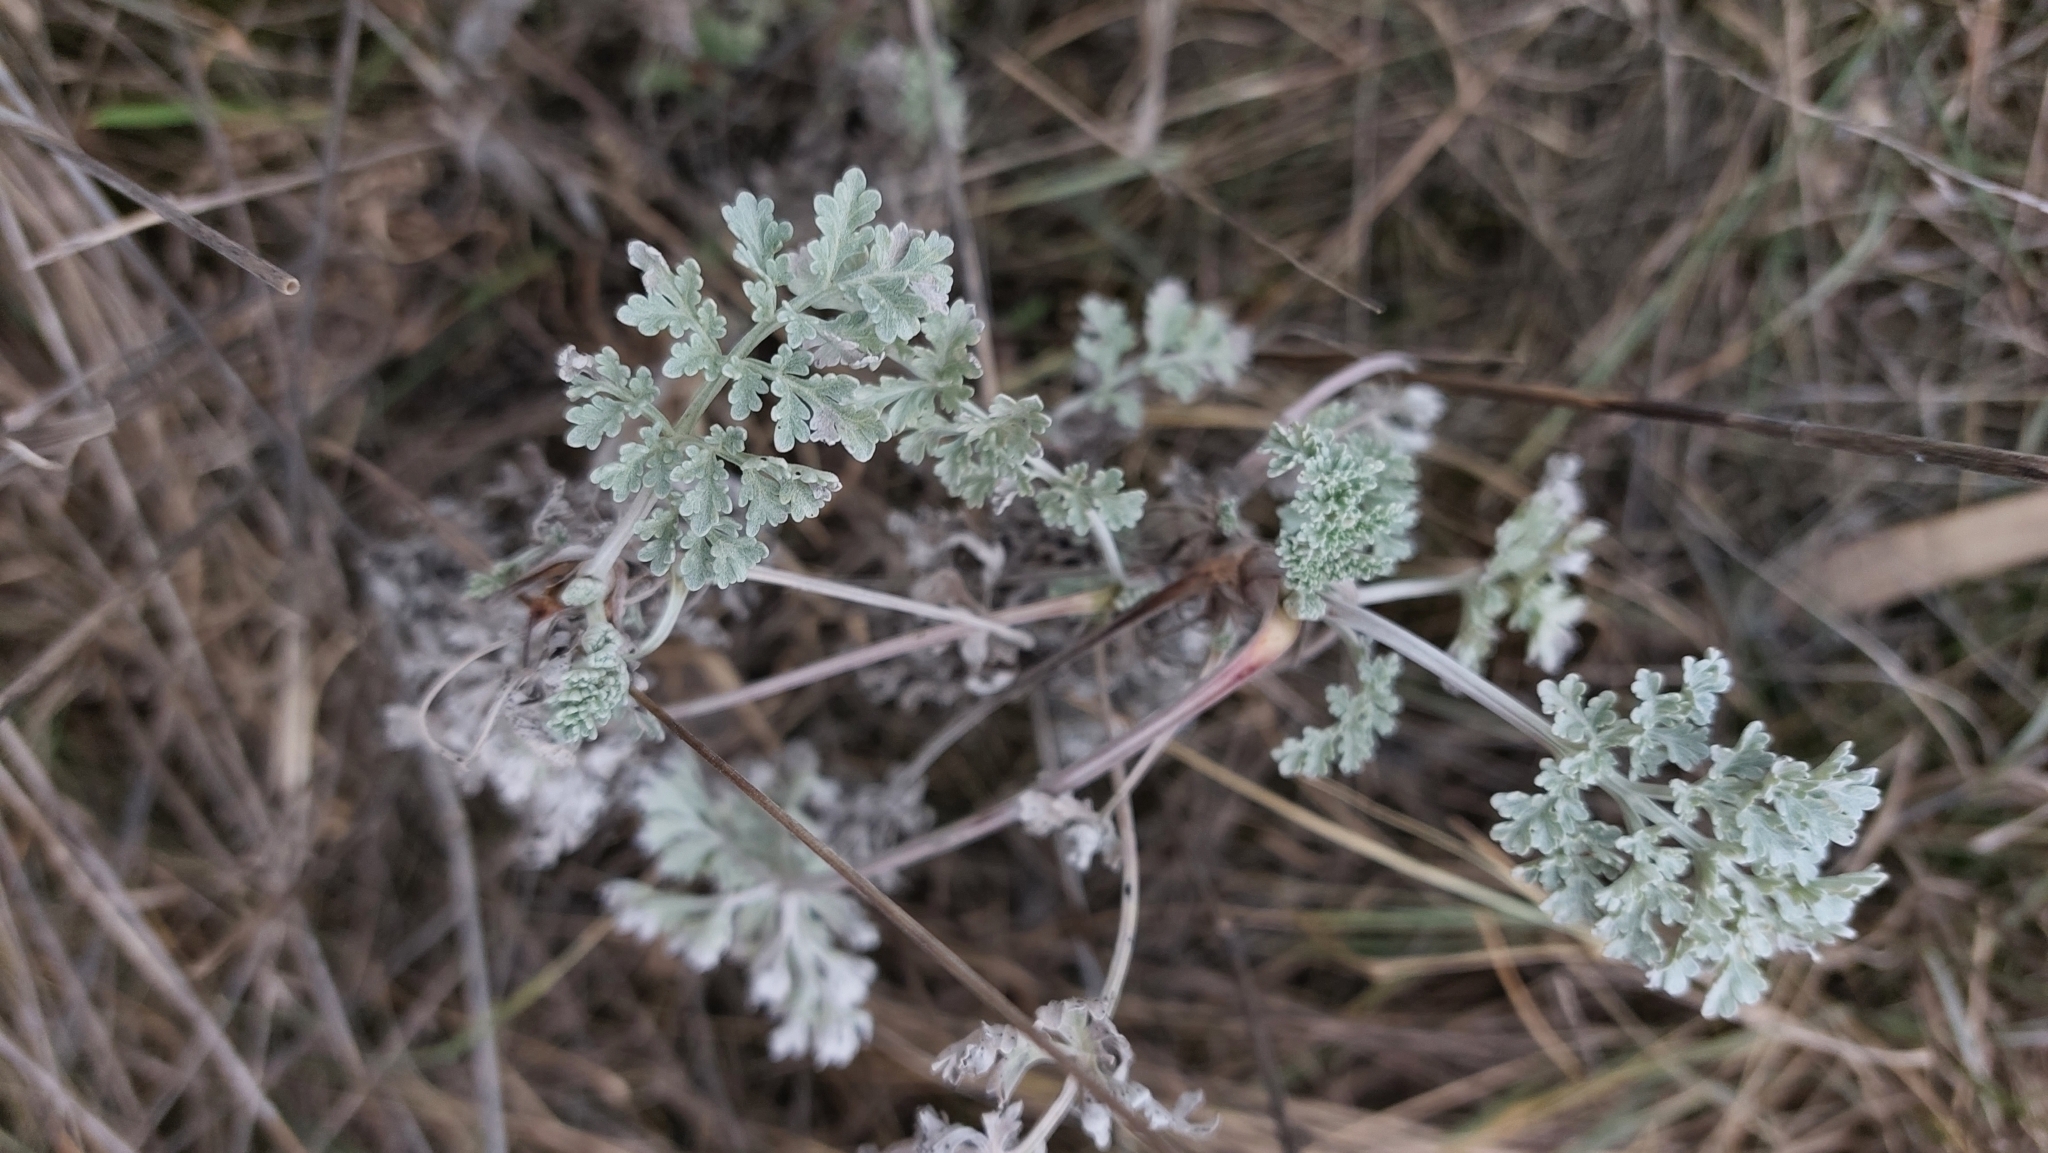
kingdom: Plantae
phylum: Tracheophyta
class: Magnoliopsida
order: Asterales
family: Asteraceae
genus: Artemisia
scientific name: Artemisia absinthium
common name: Wormwood
